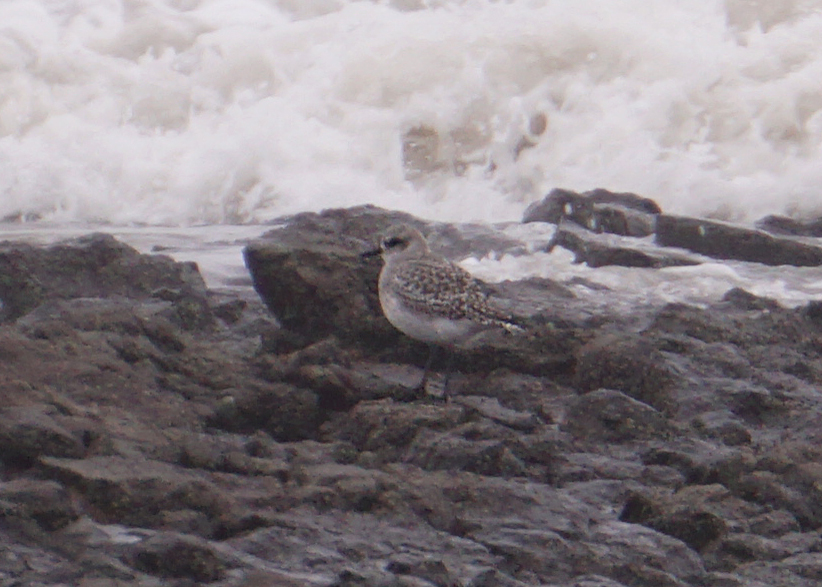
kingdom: Animalia
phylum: Chordata
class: Aves
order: Charadriiformes
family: Charadriidae
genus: Pluvialis
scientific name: Pluvialis squatarola
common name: Grey plover
